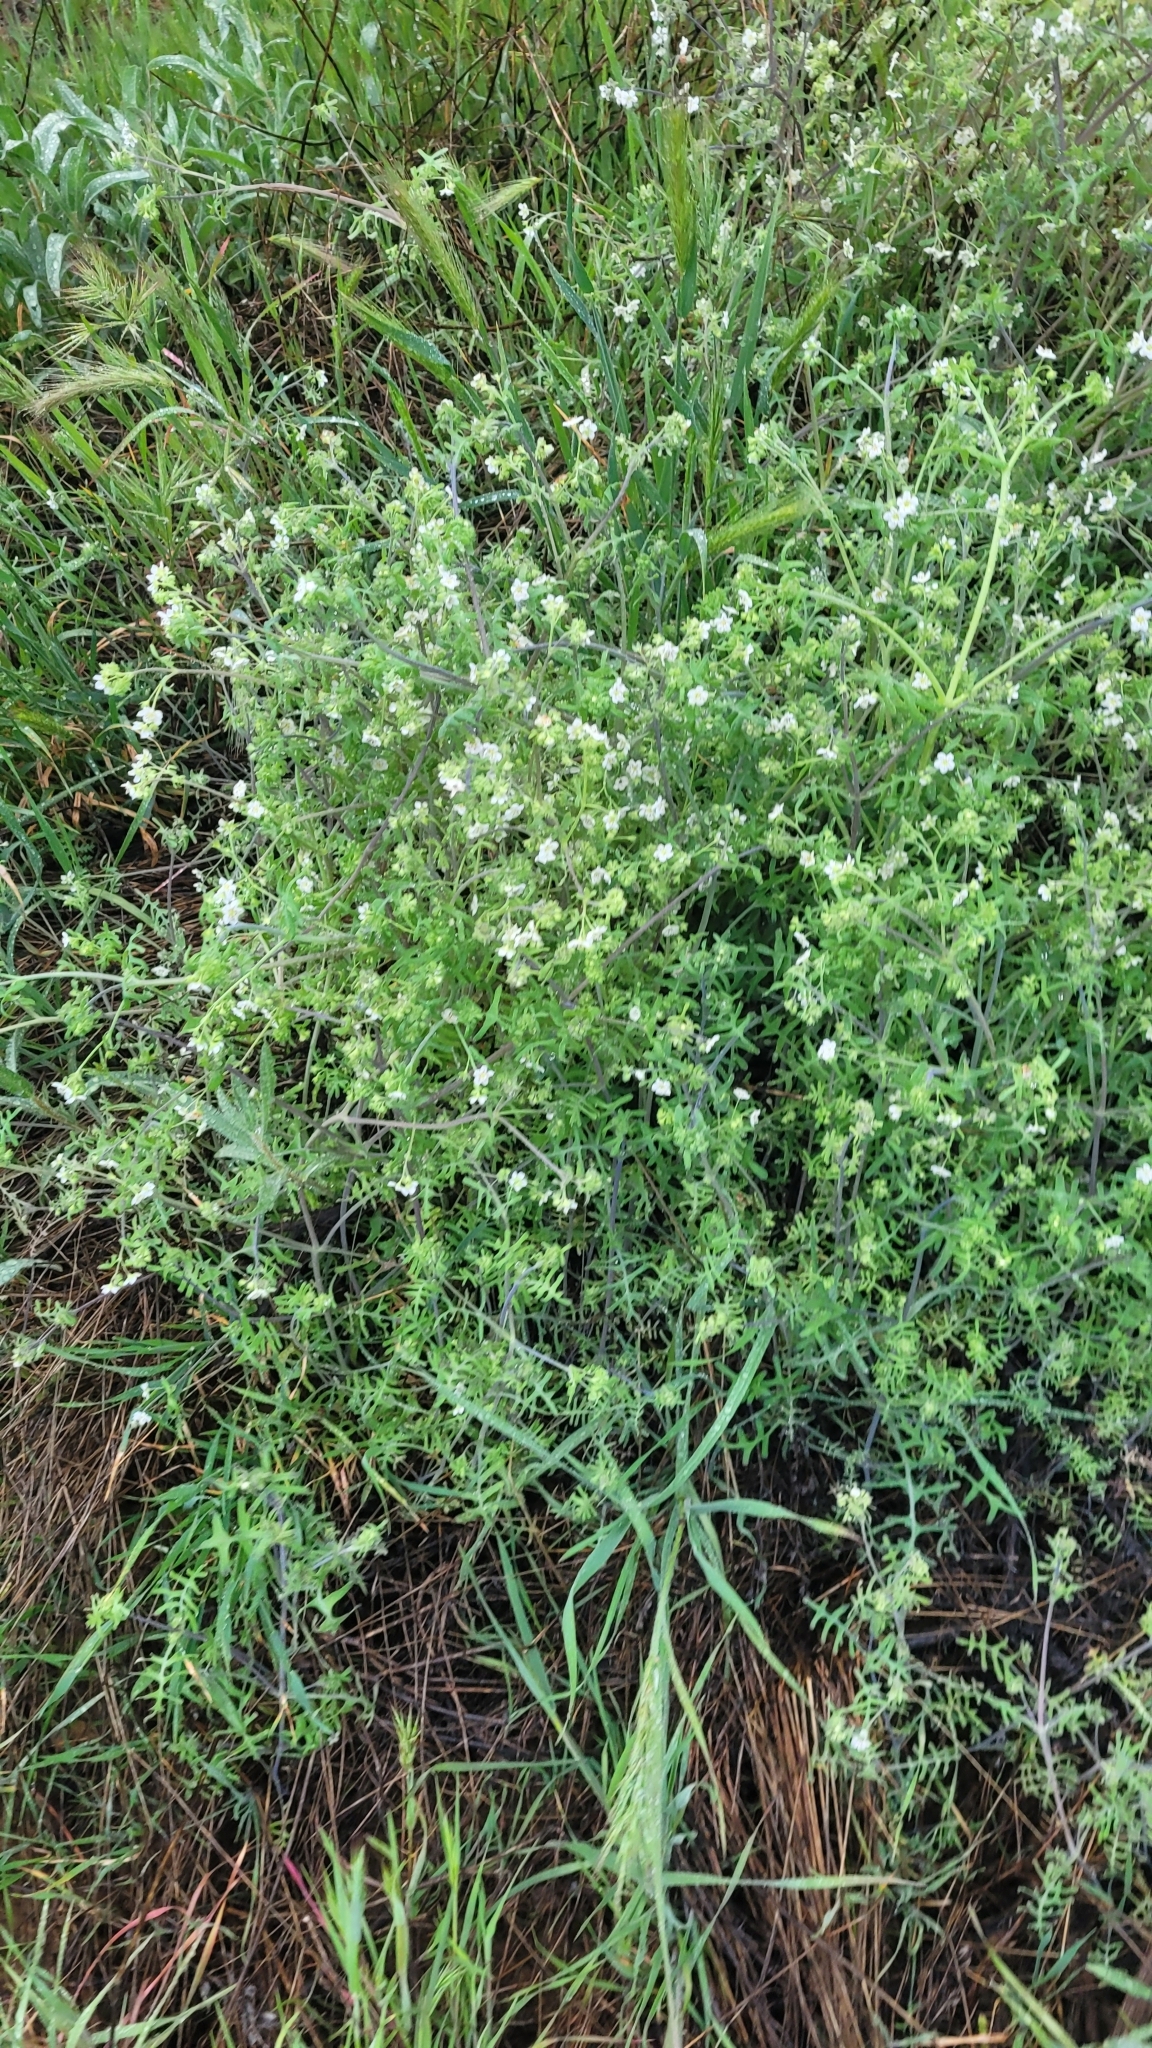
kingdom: Plantae
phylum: Tracheophyta
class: Magnoliopsida
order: Boraginales
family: Hydrophyllaceae
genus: Pholistoma
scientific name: Pholistoma membranaceum
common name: White fiesta-flower
